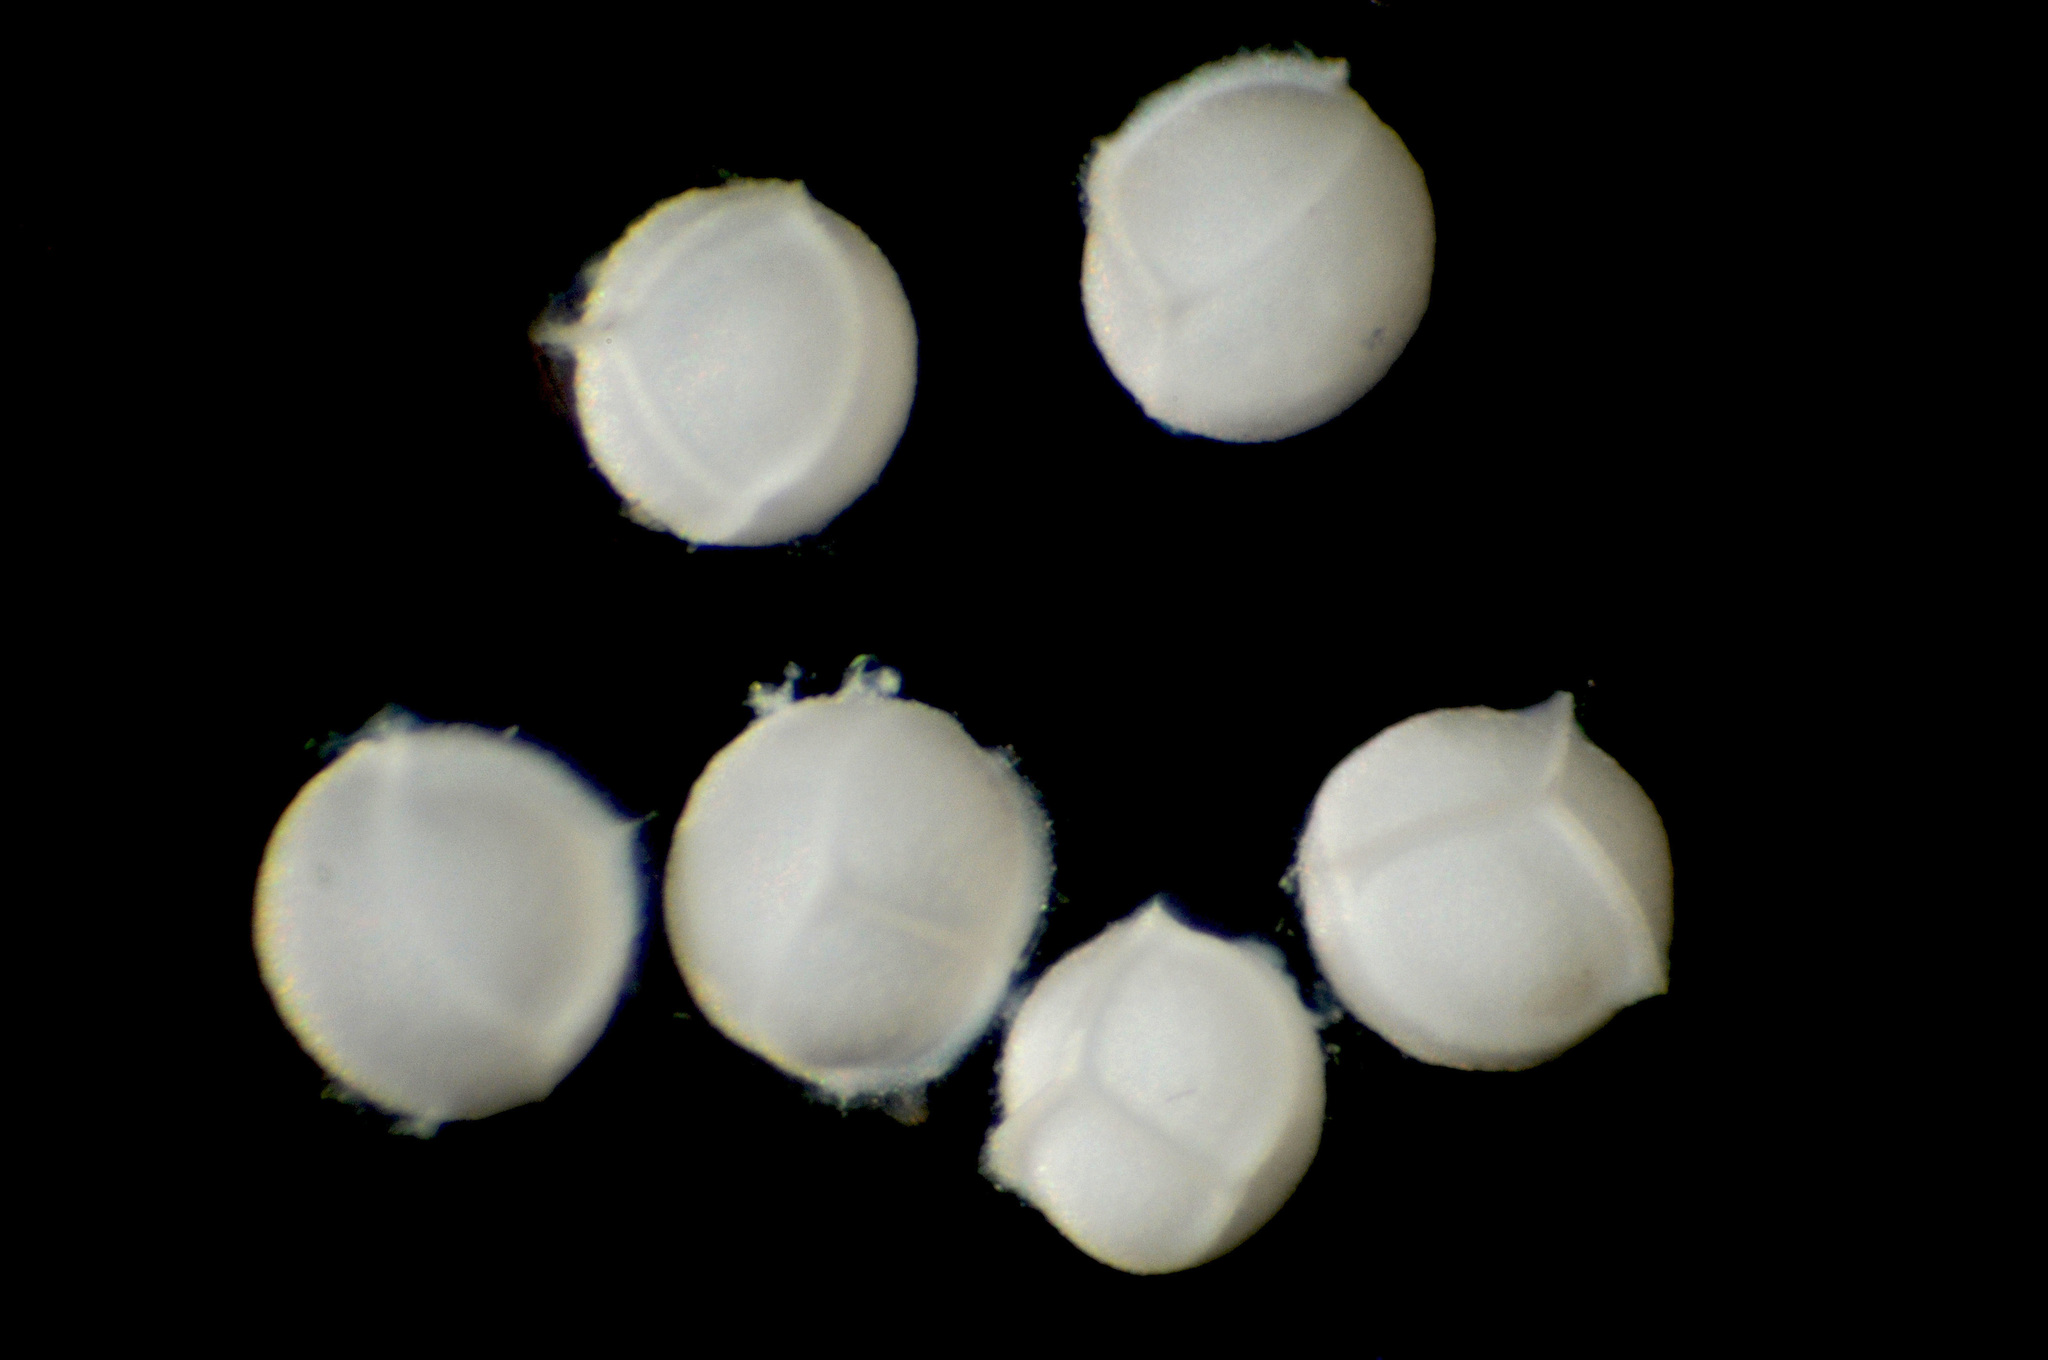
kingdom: Plantae
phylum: Tracheophyta
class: Lycopodiopsida
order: Isoetales
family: Isoetaceae
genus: Isoetes
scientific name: Isoetes nuttallii
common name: Nuttall's quillwort
